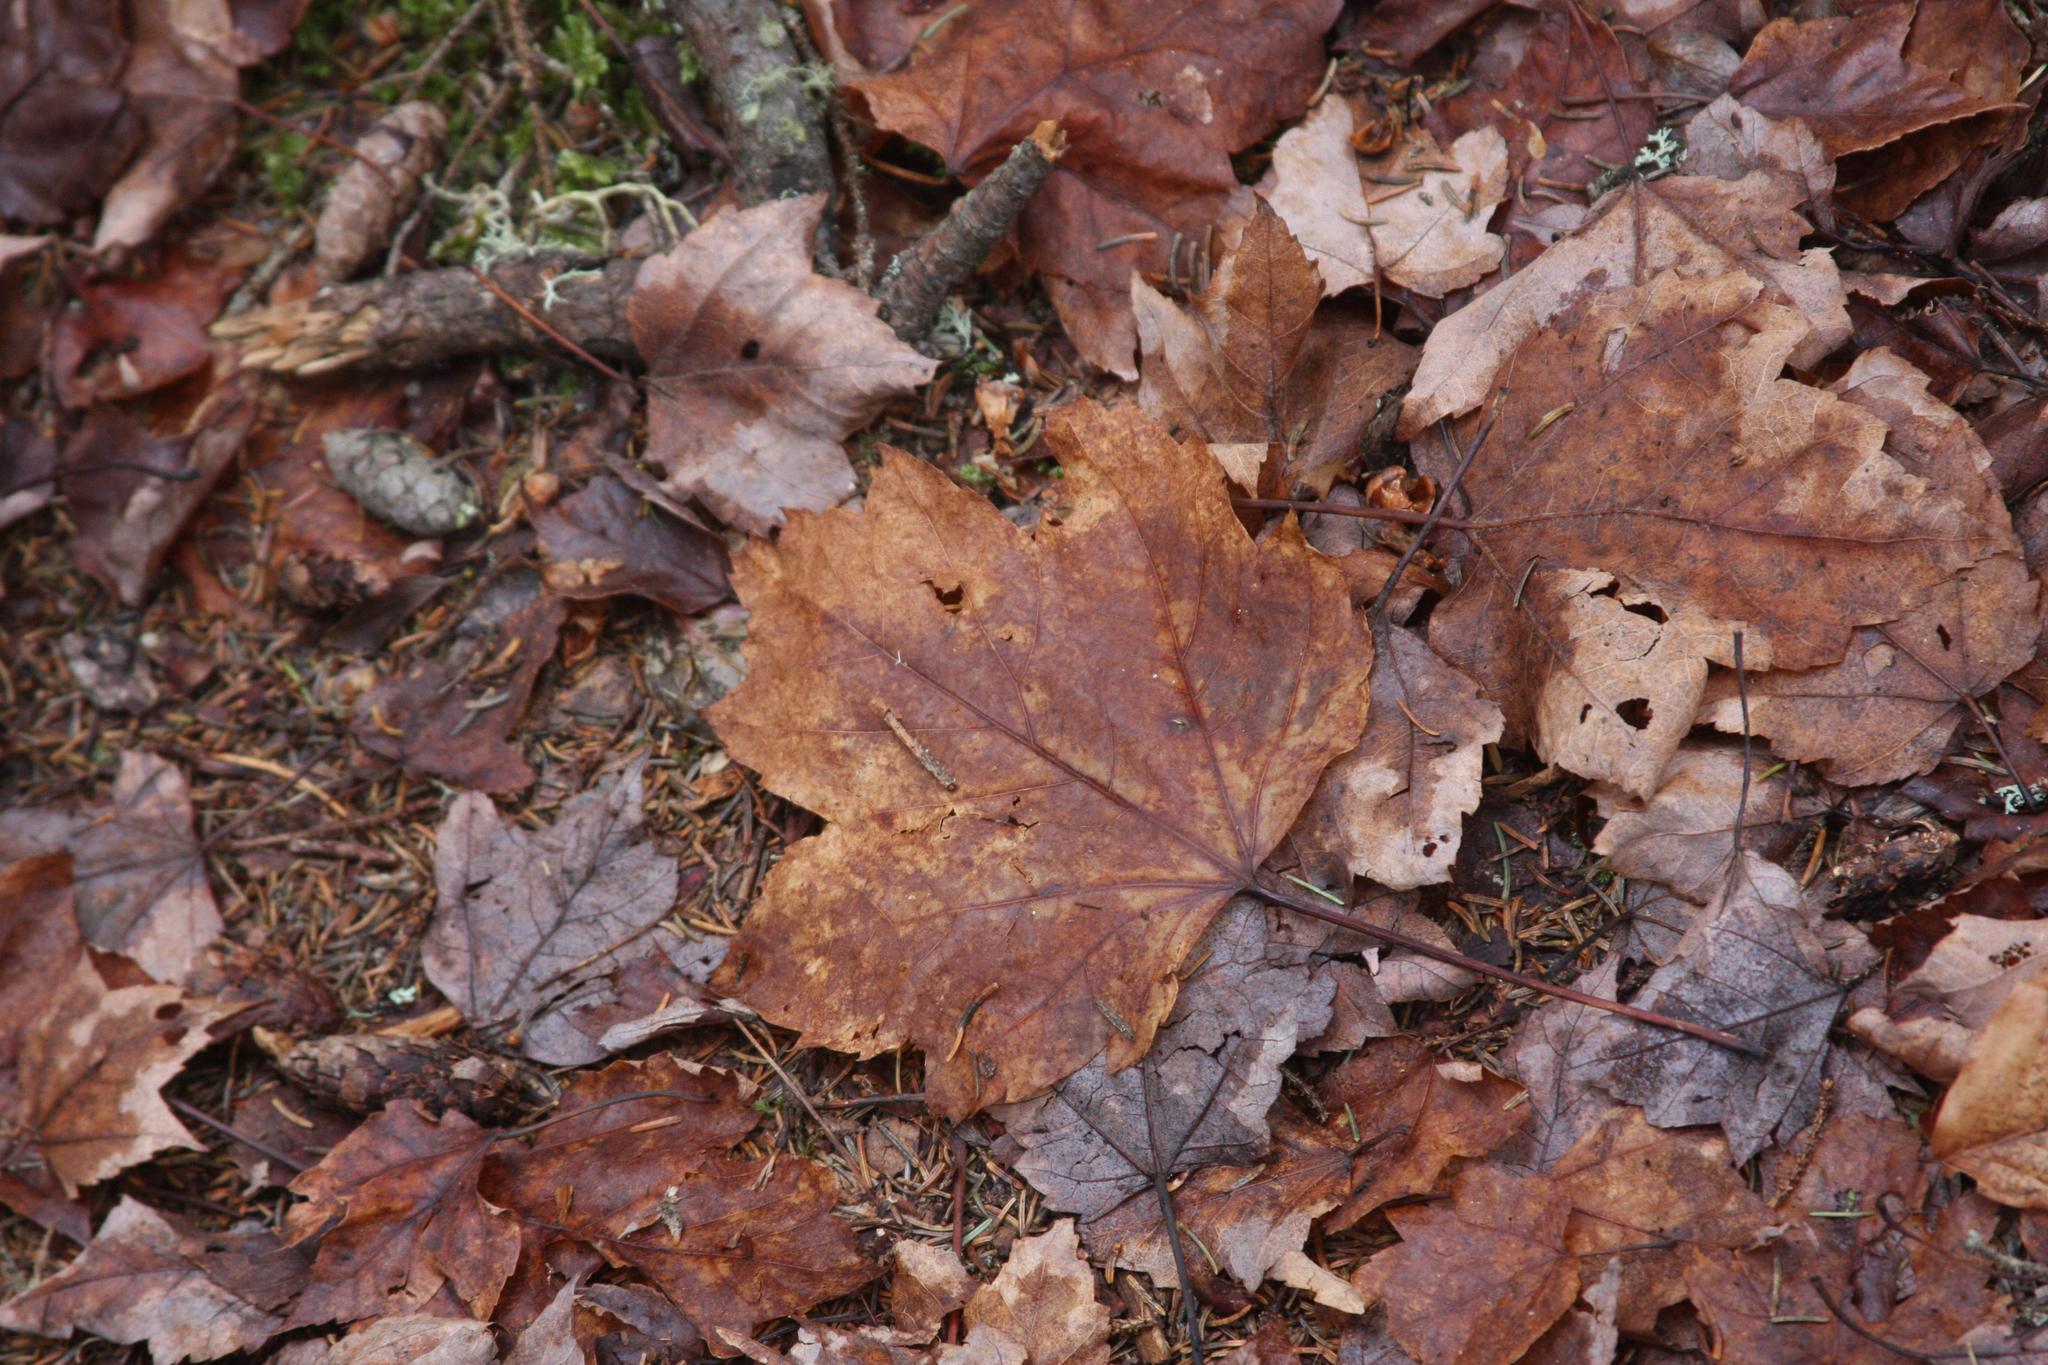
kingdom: Plantae
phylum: Tracheophyta
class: Magnoliopsida
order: Sapindales
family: Sapindaceae
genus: Acer
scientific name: Acer rubrum
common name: Red maple
